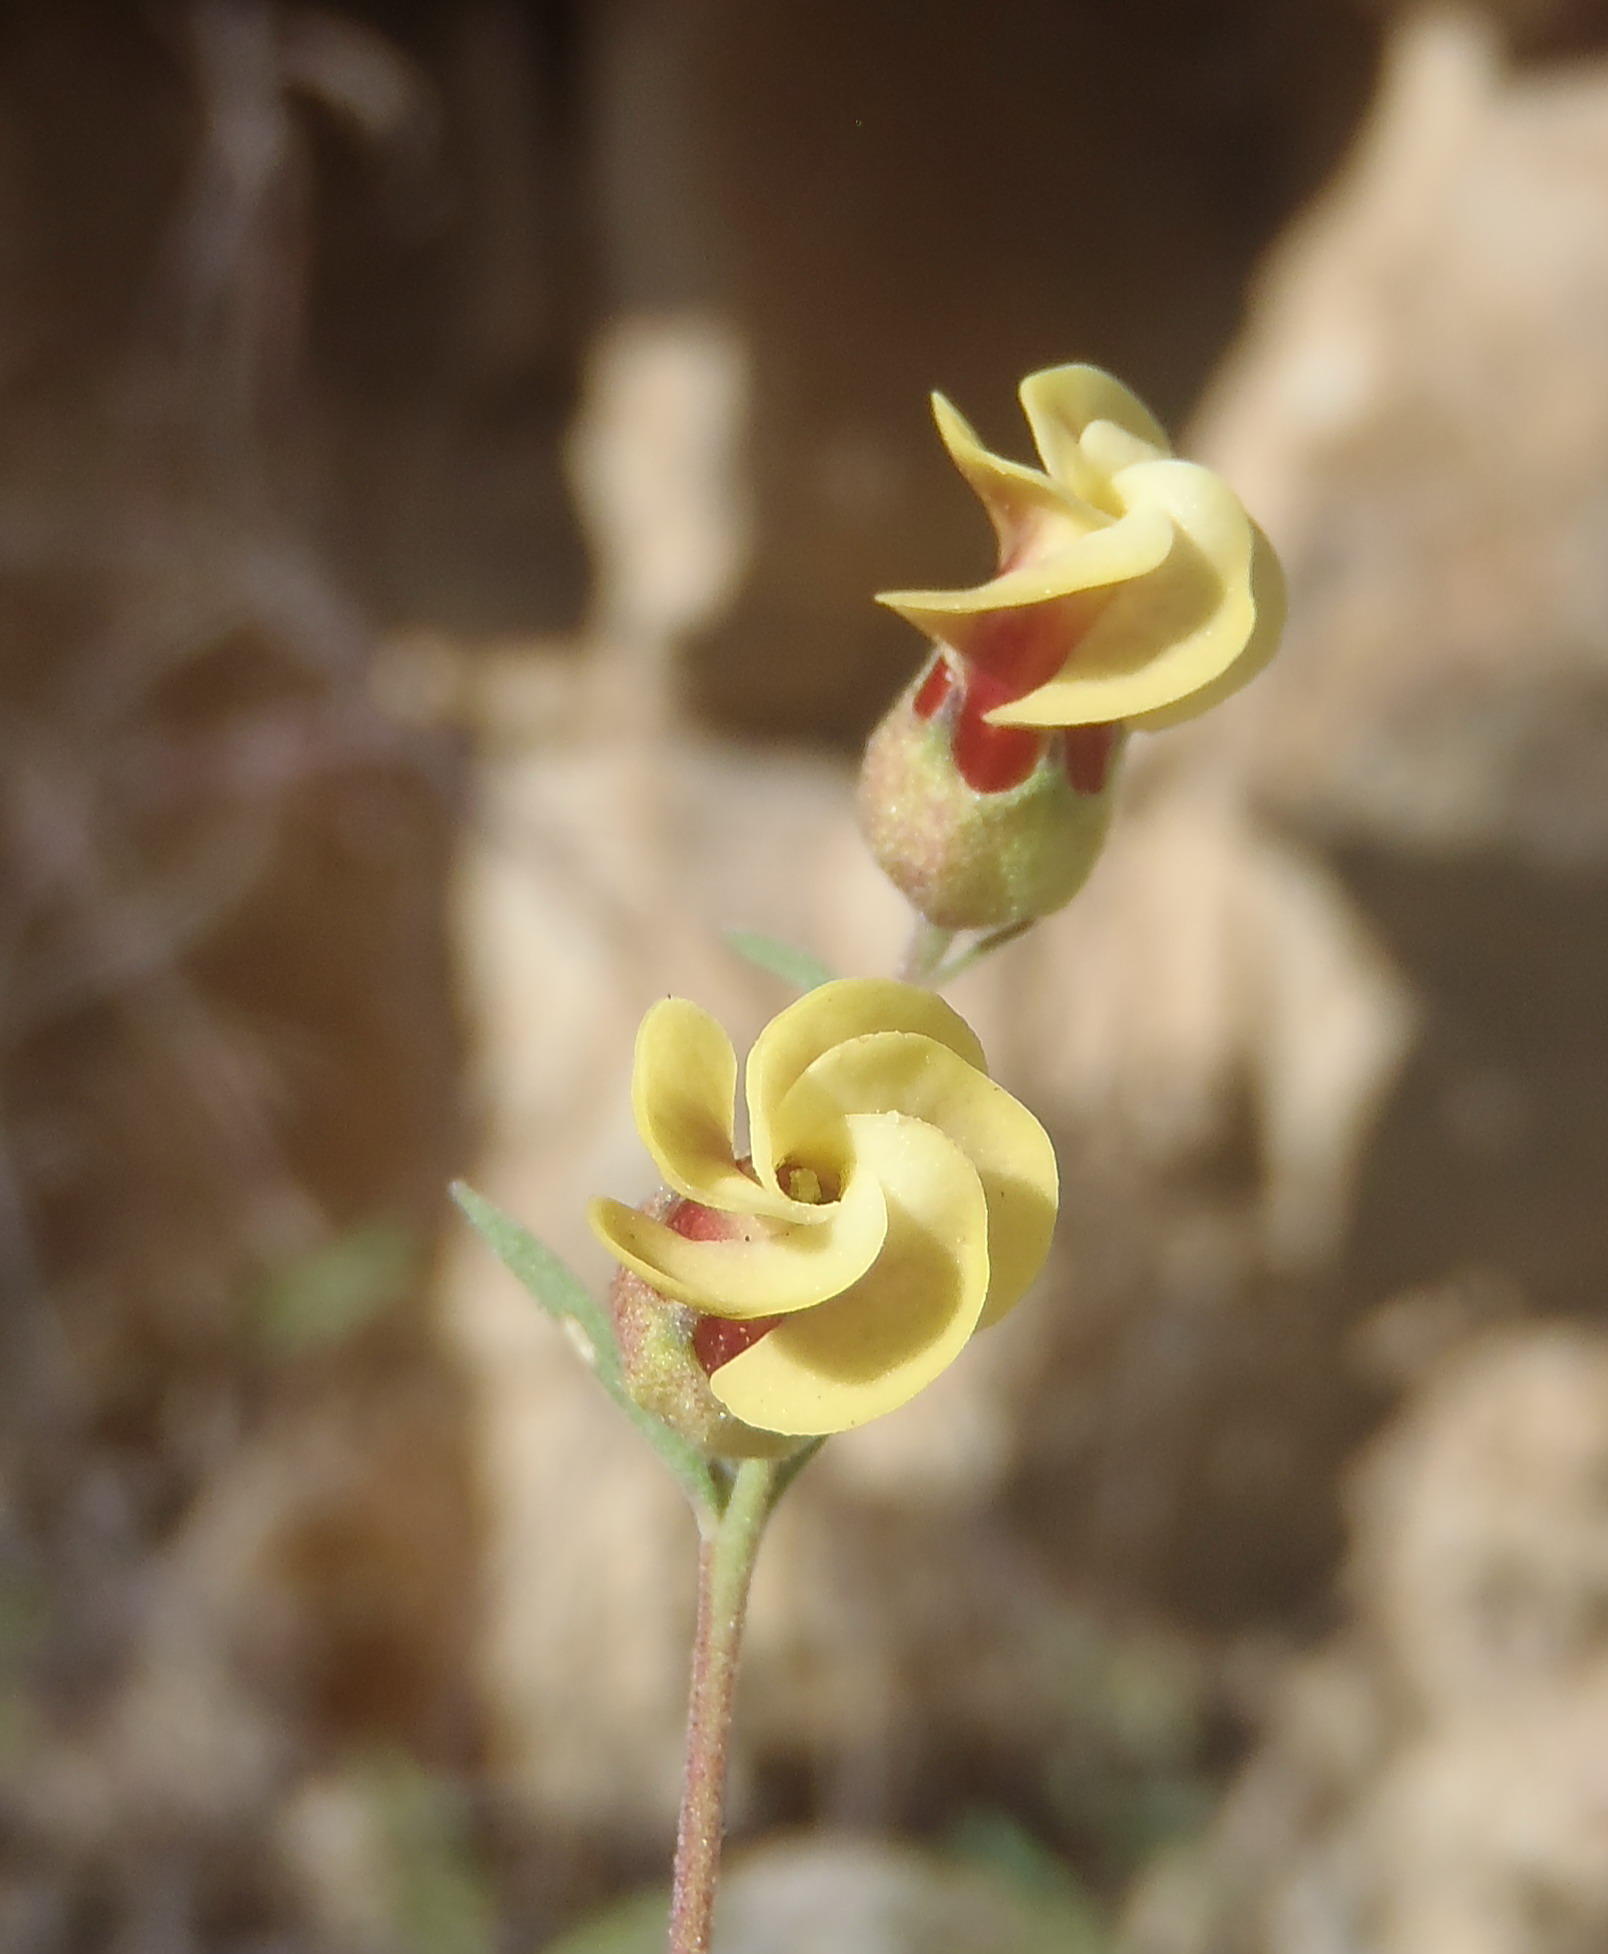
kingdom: Plantae
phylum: Tracheophyta
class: Magnoliopsida
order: Malvales
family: Malvaceae
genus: Hermannia
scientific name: Hermannia gracilis
